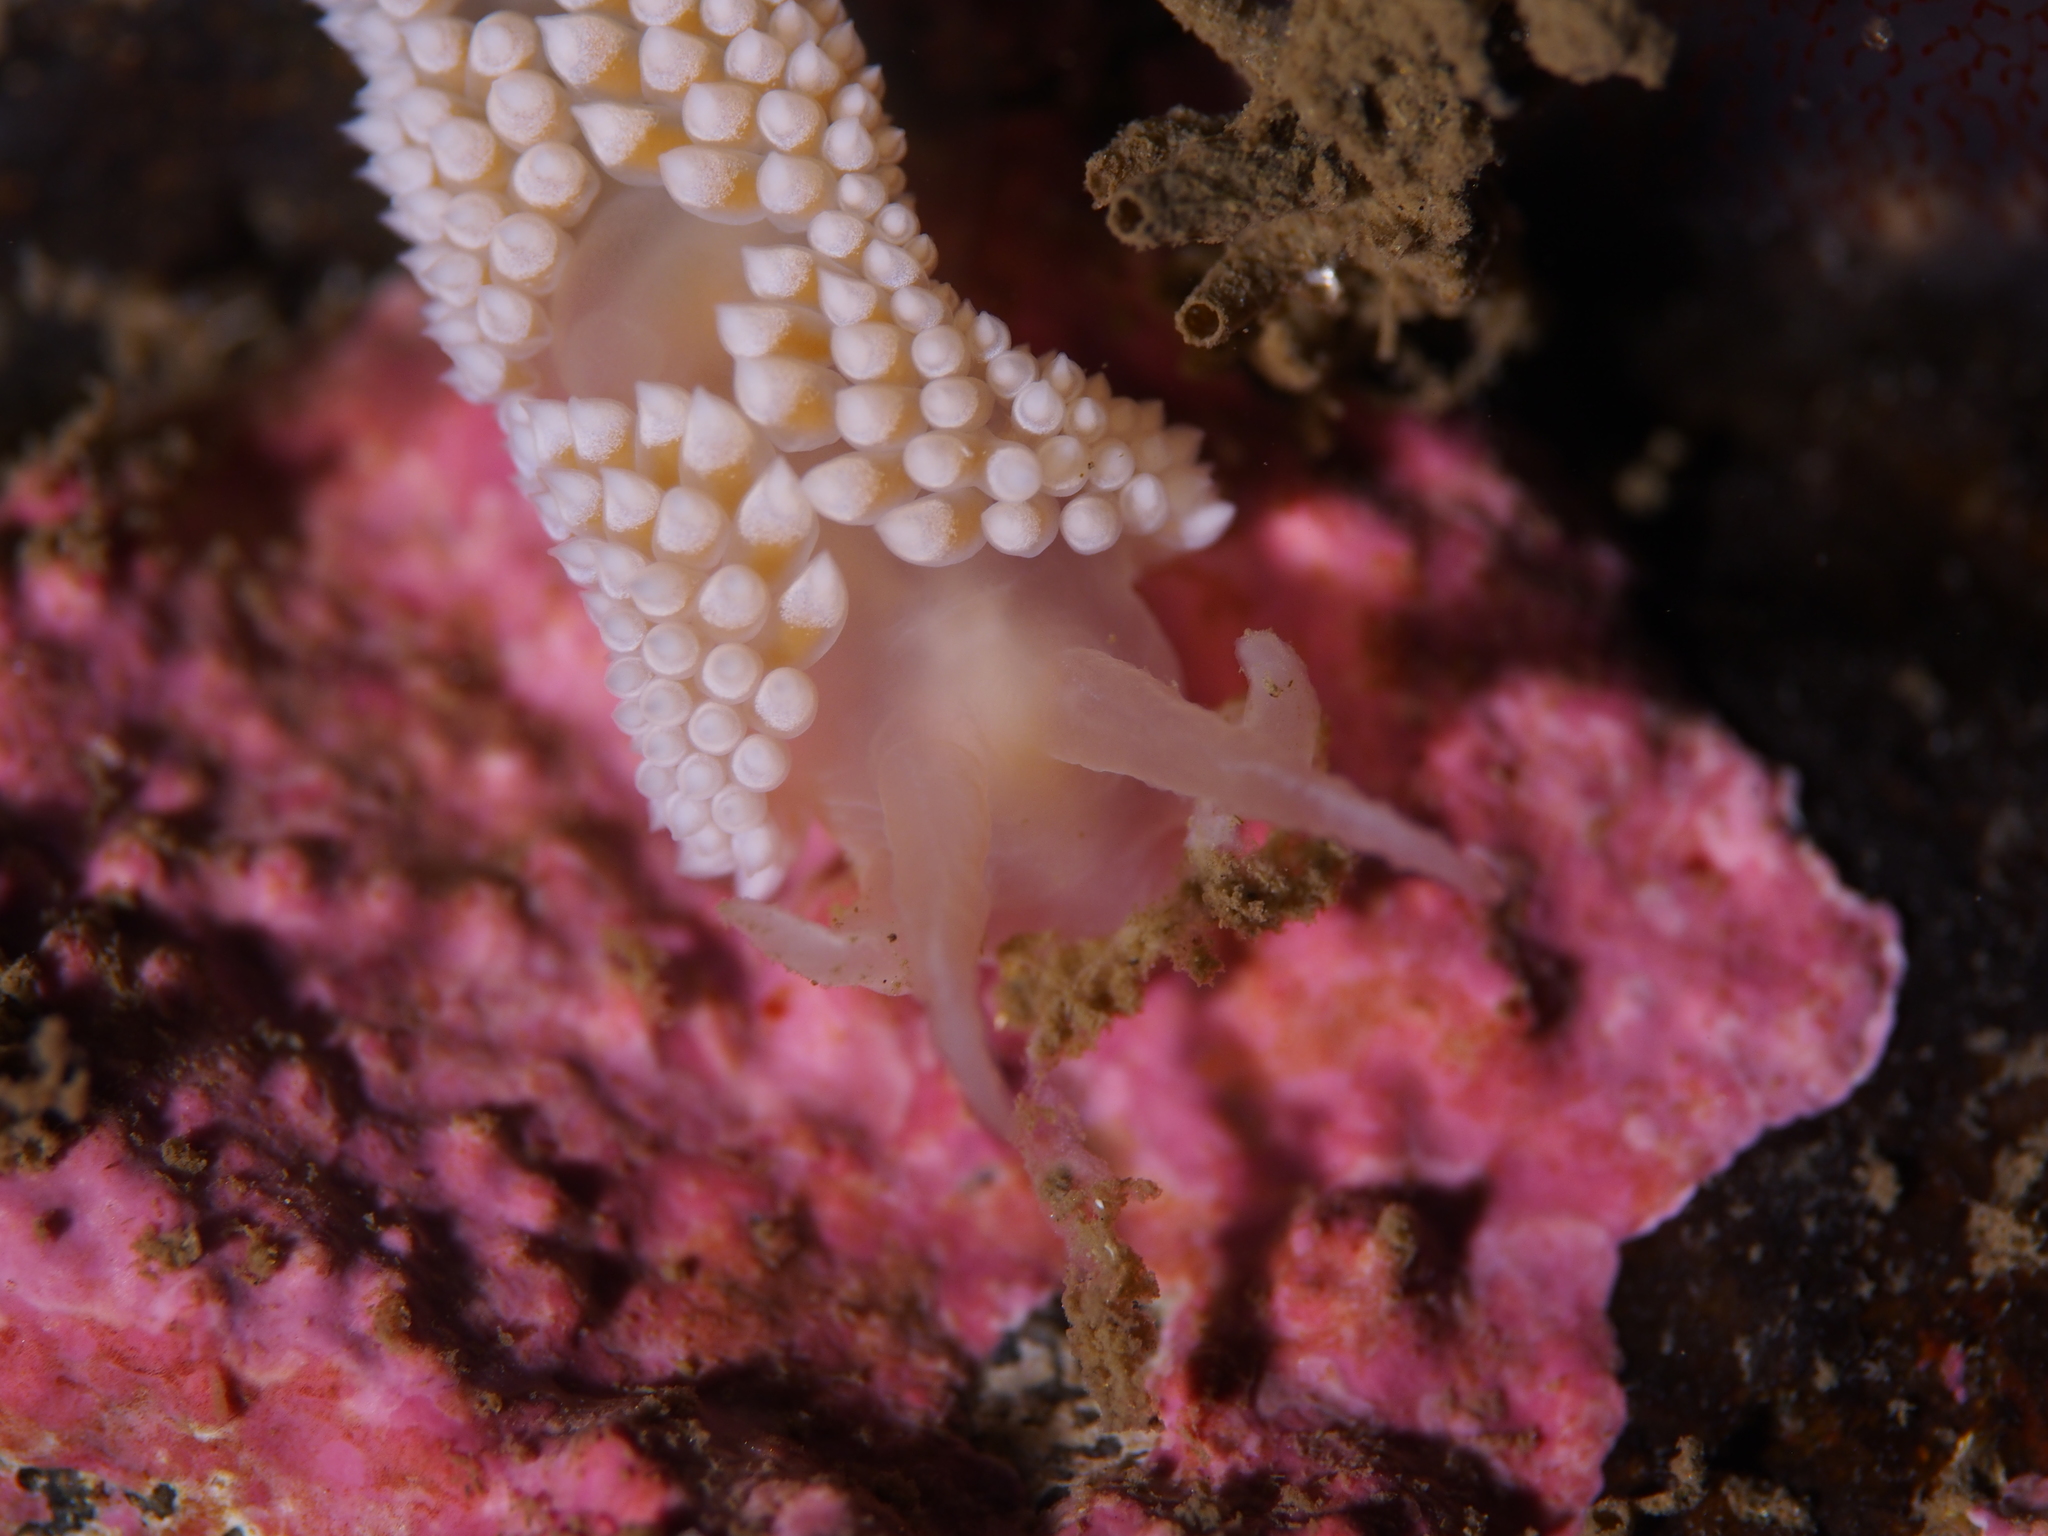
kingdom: Animalia
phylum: Mollusca
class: Gastropoda
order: Nudibranchia
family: Coryphellidae
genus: Coryphella
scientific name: Coryphella verrucosa
